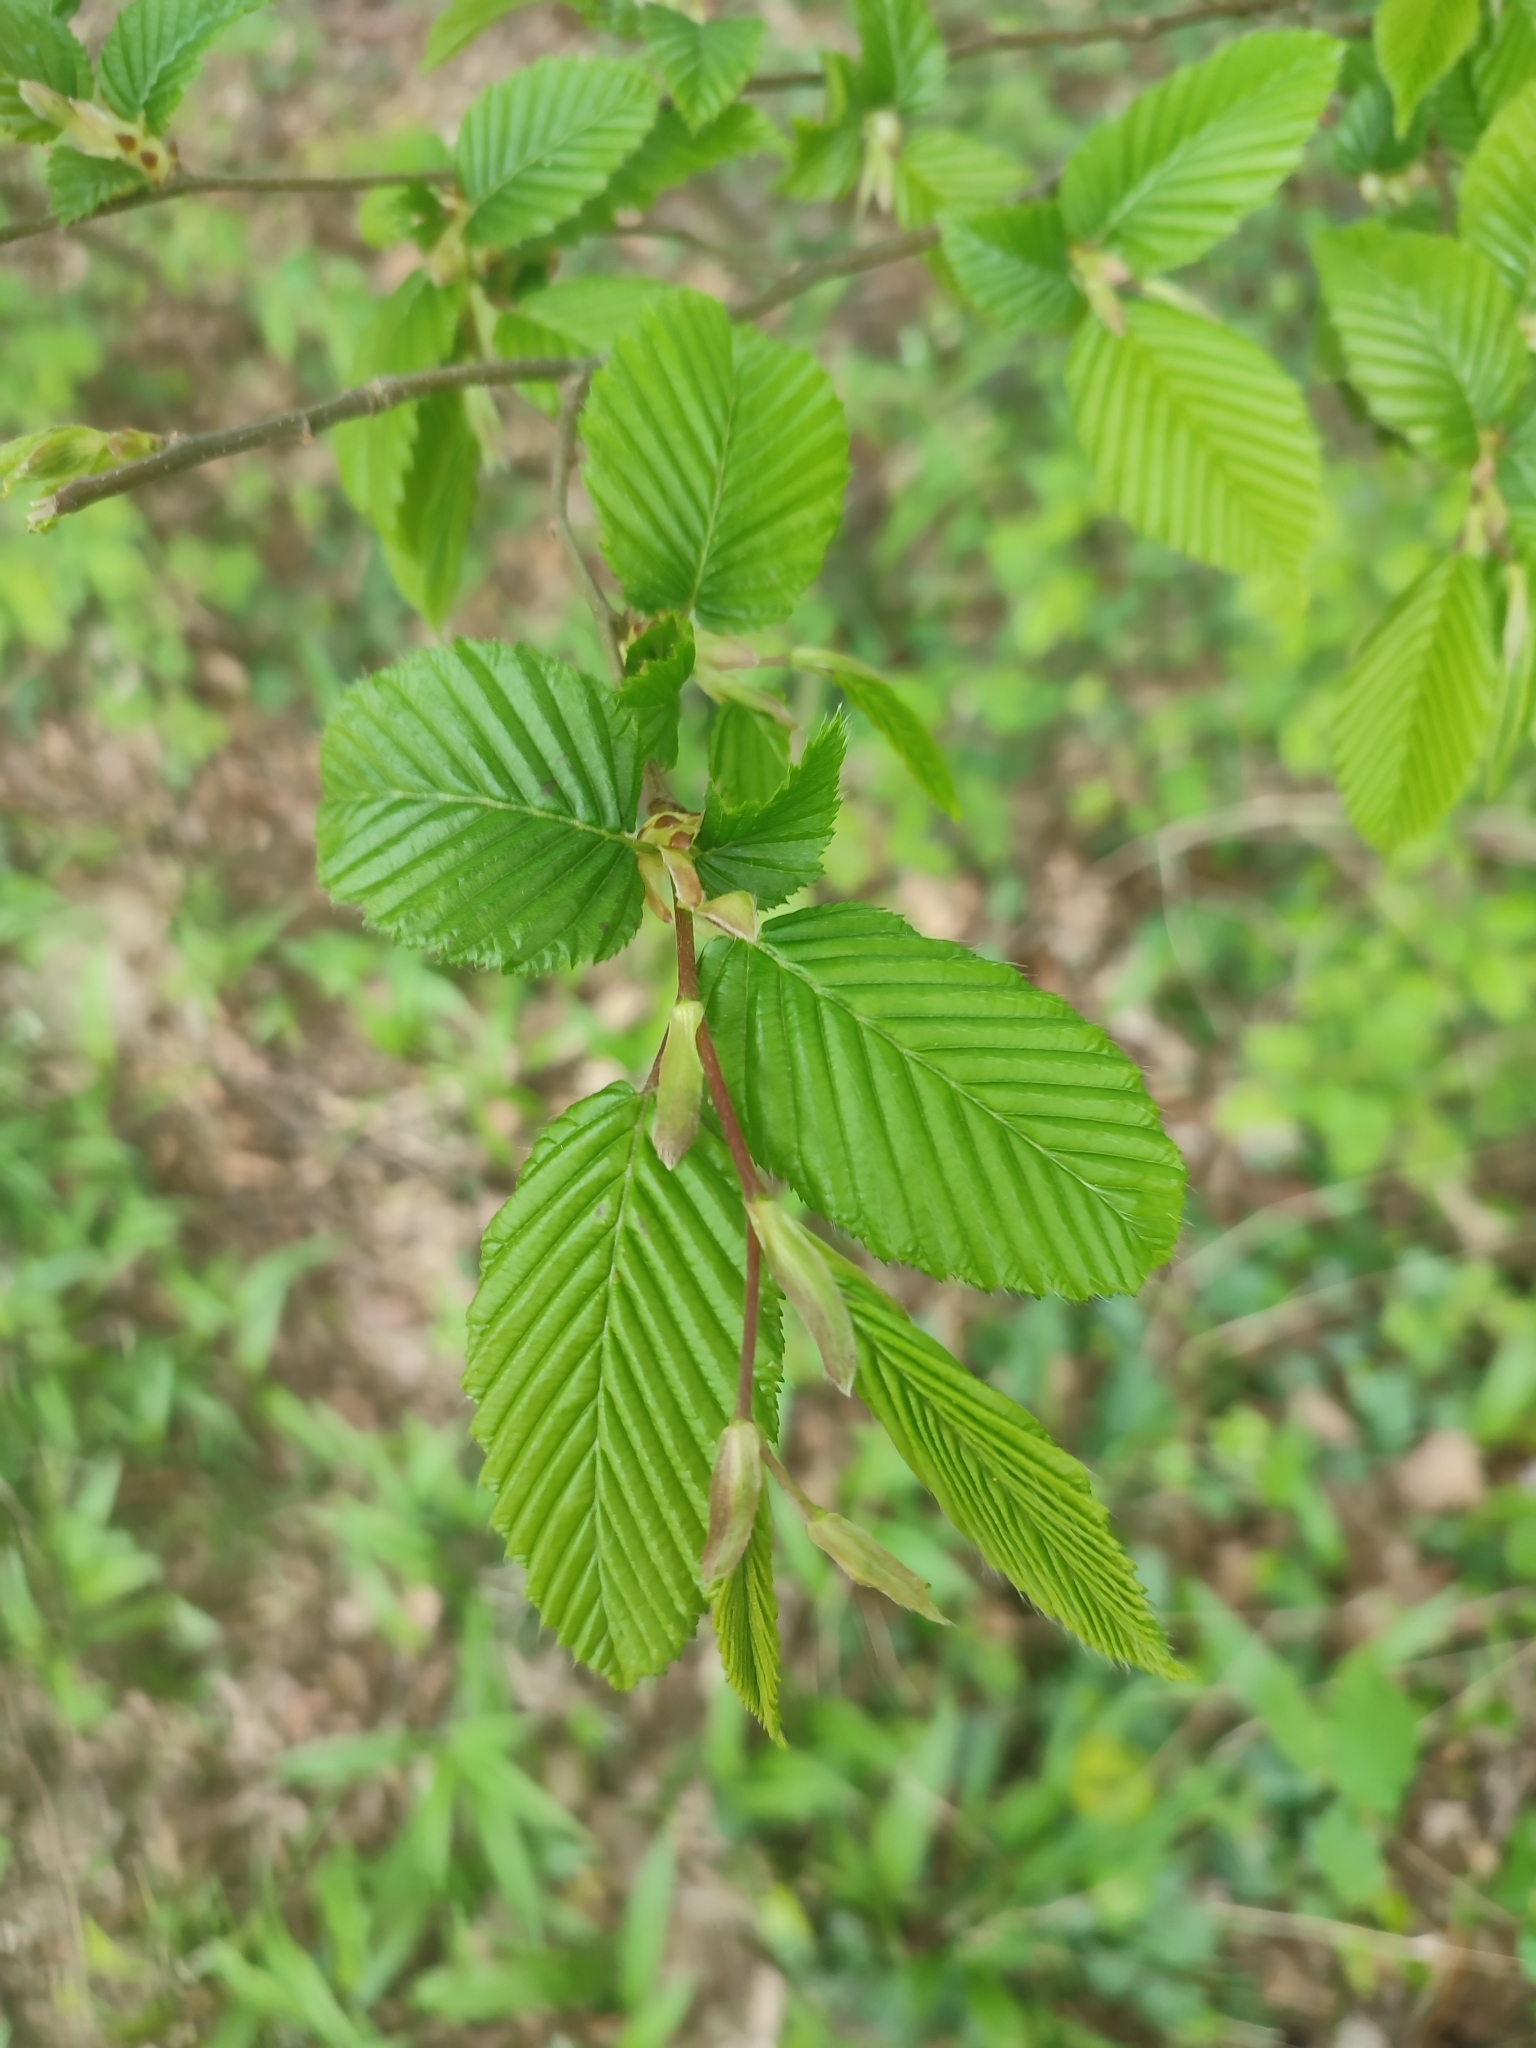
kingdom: Plantae
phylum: Tracheophyta
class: Magnoliopsida
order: Fagales
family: Betulaceae
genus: Carpinus
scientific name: Carpinus betulus
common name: Hornbeam
